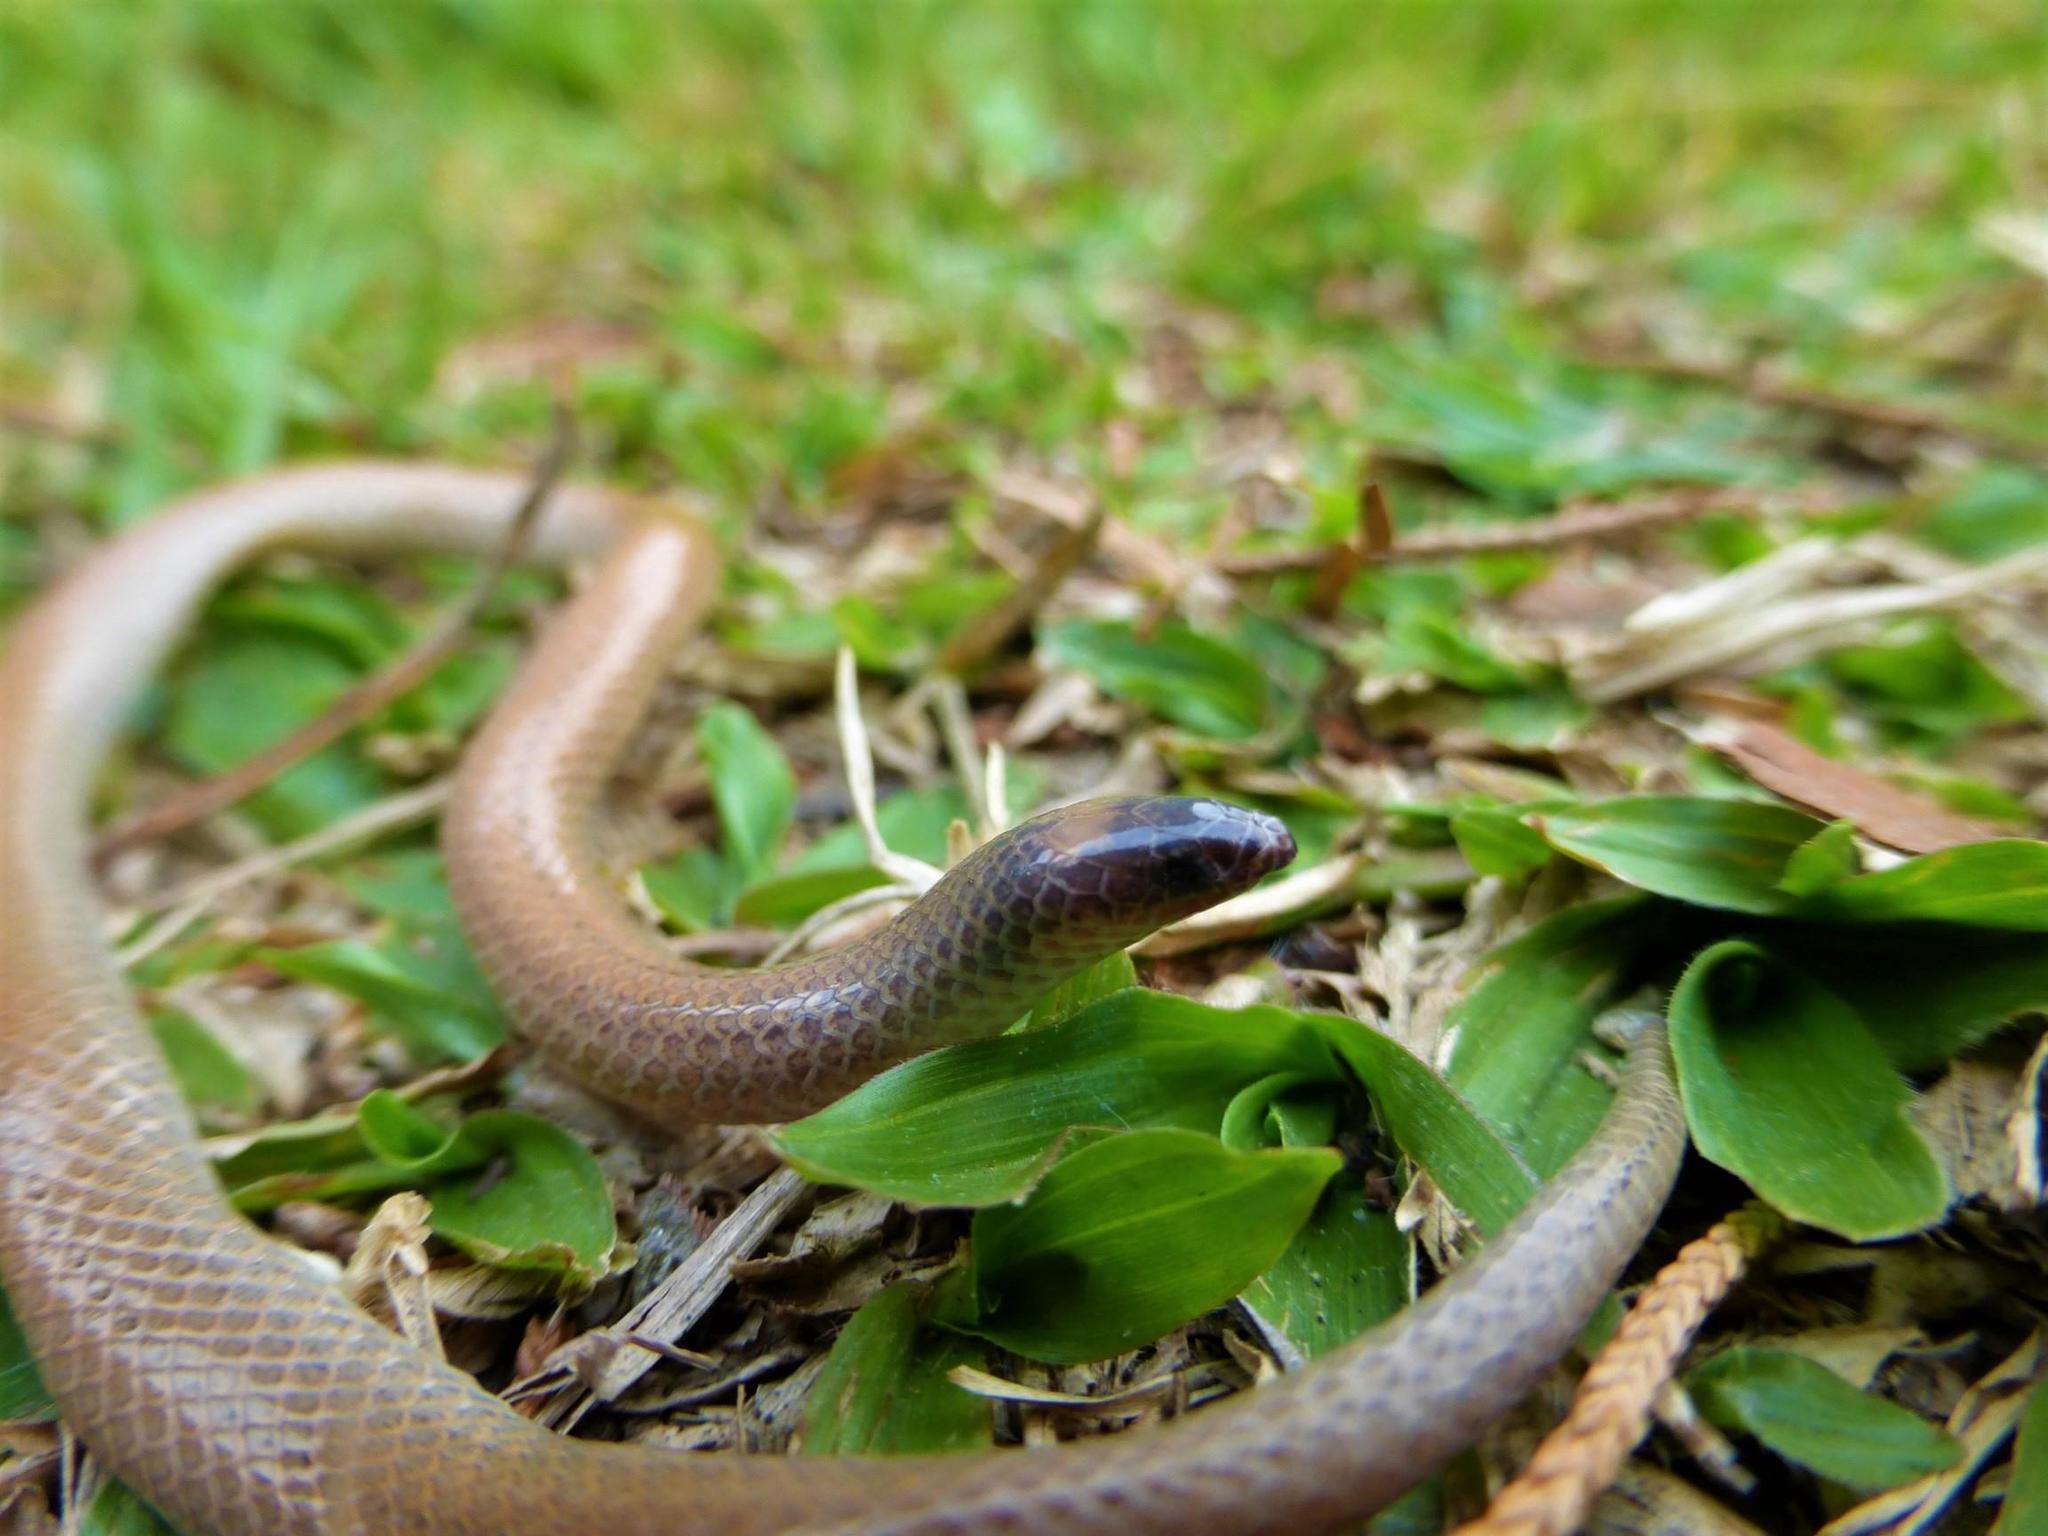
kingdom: Animalia
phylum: Chordata
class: Squamata
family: Colubridae
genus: Tantilla
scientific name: Tantilla vermiformis
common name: Hallowell's centipede snake
